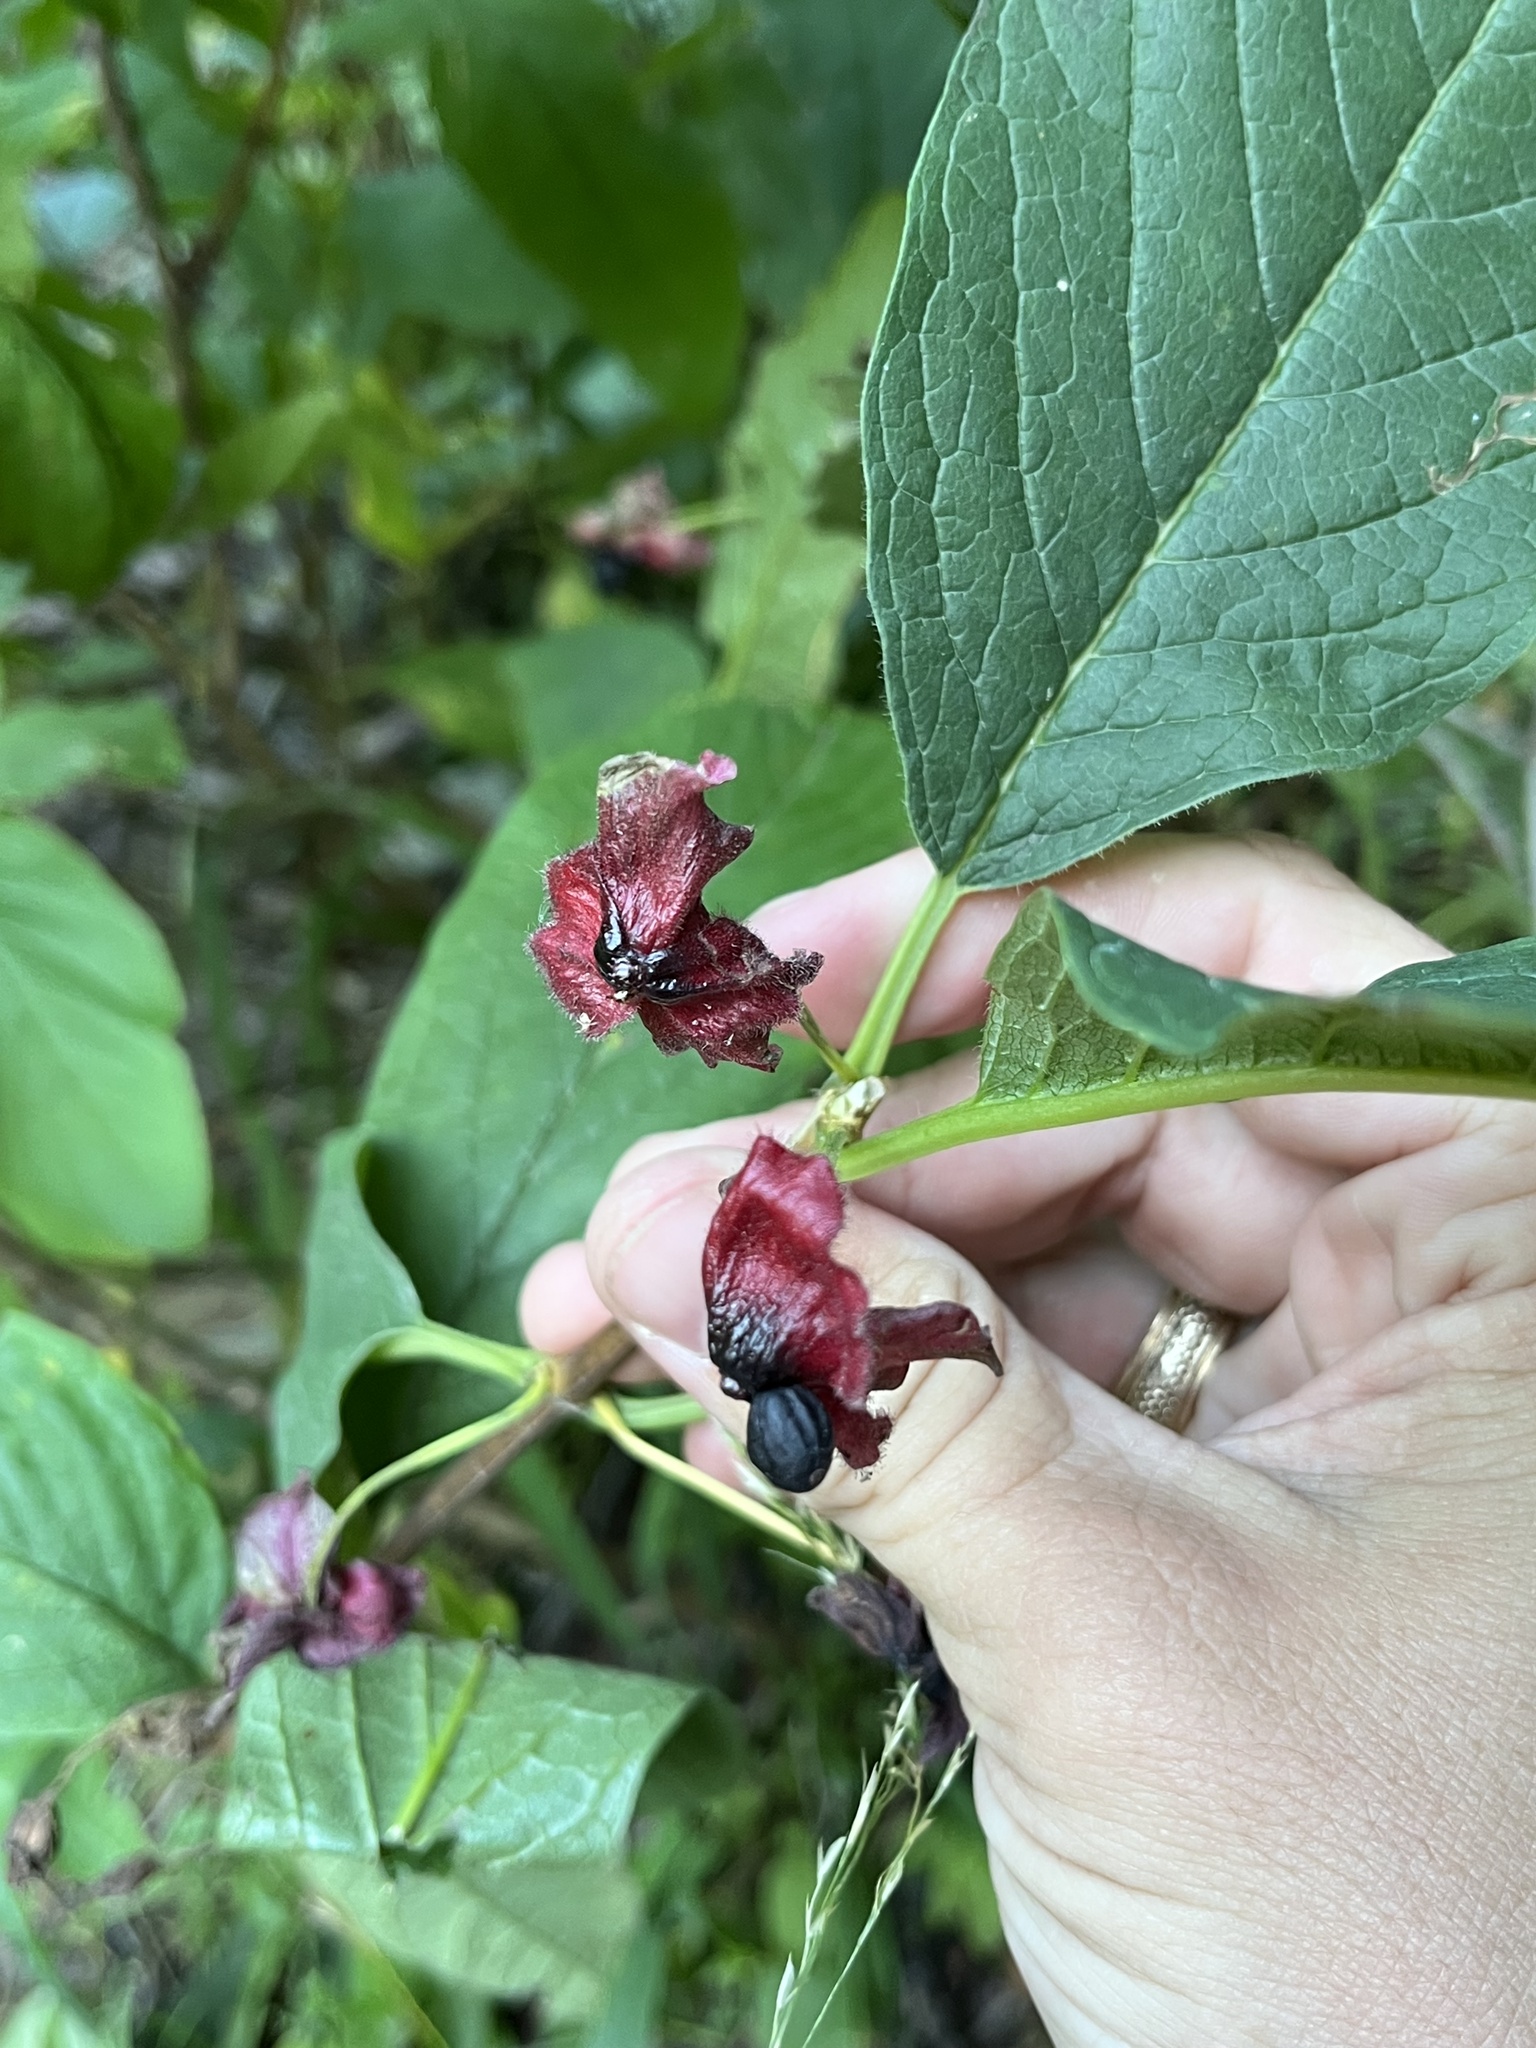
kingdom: Plantae
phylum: Tracheophyta
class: Magnoliopsida
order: Dipsacales
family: Caprifoliaceae
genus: Lonicera
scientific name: Lonicera involucrata
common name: Californian honeysuckle
